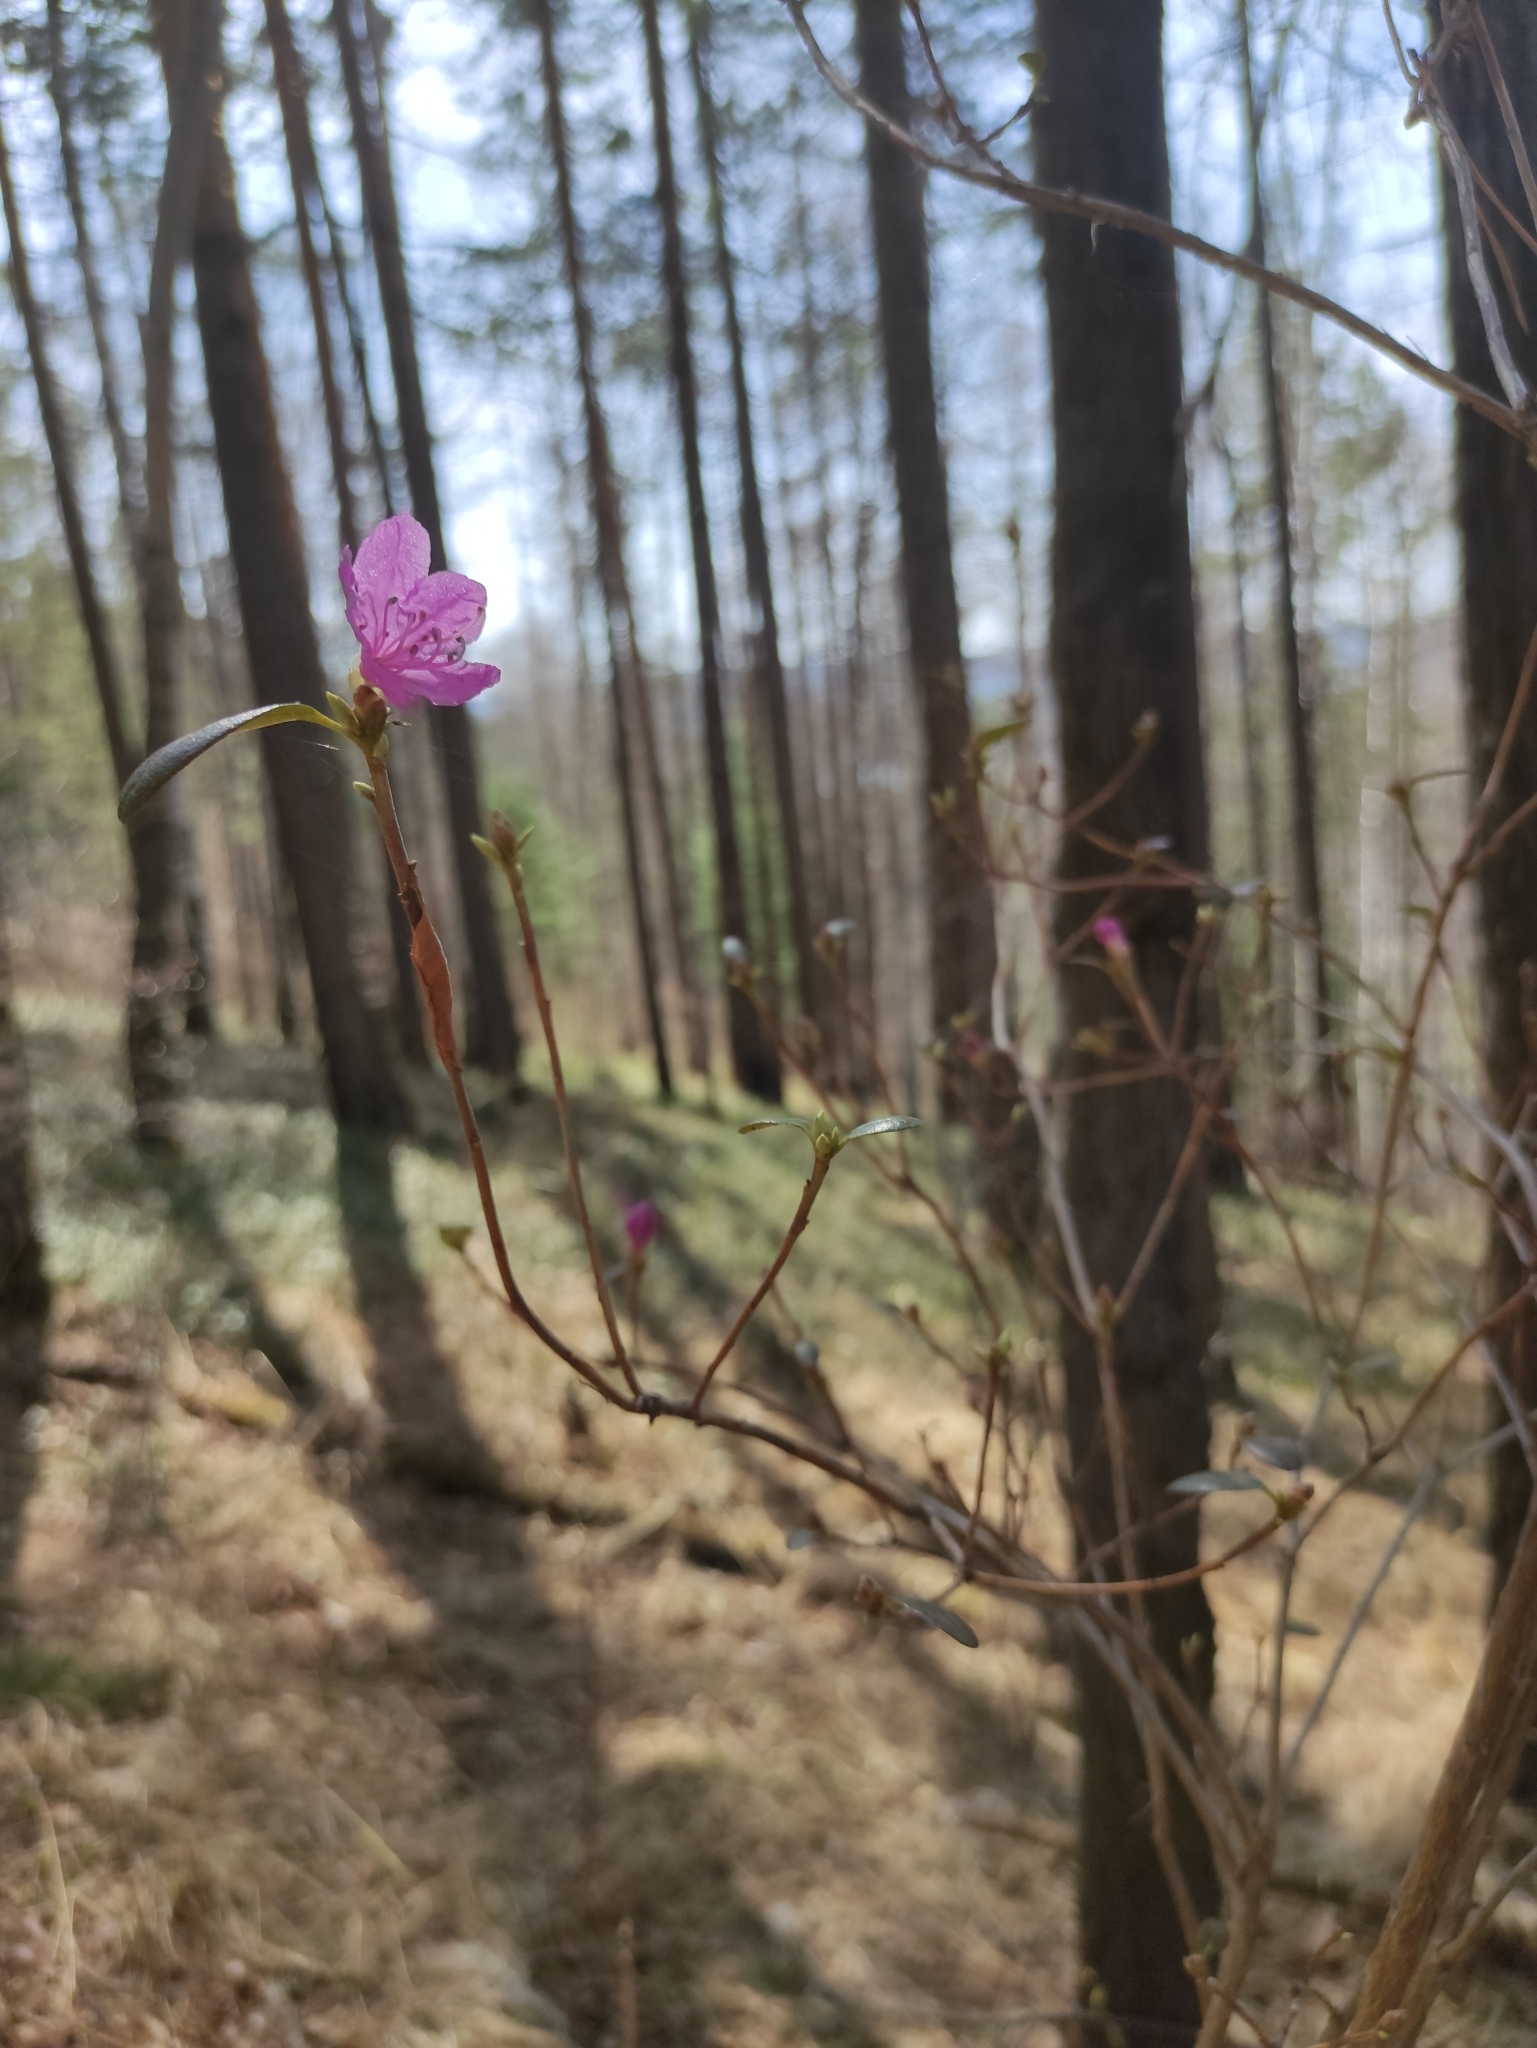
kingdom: Plantae
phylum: Tracheophyta
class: Magnoliopsida
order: Ericales
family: Ericaceae
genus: Rhododendron
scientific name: Rhododendron dauricum
